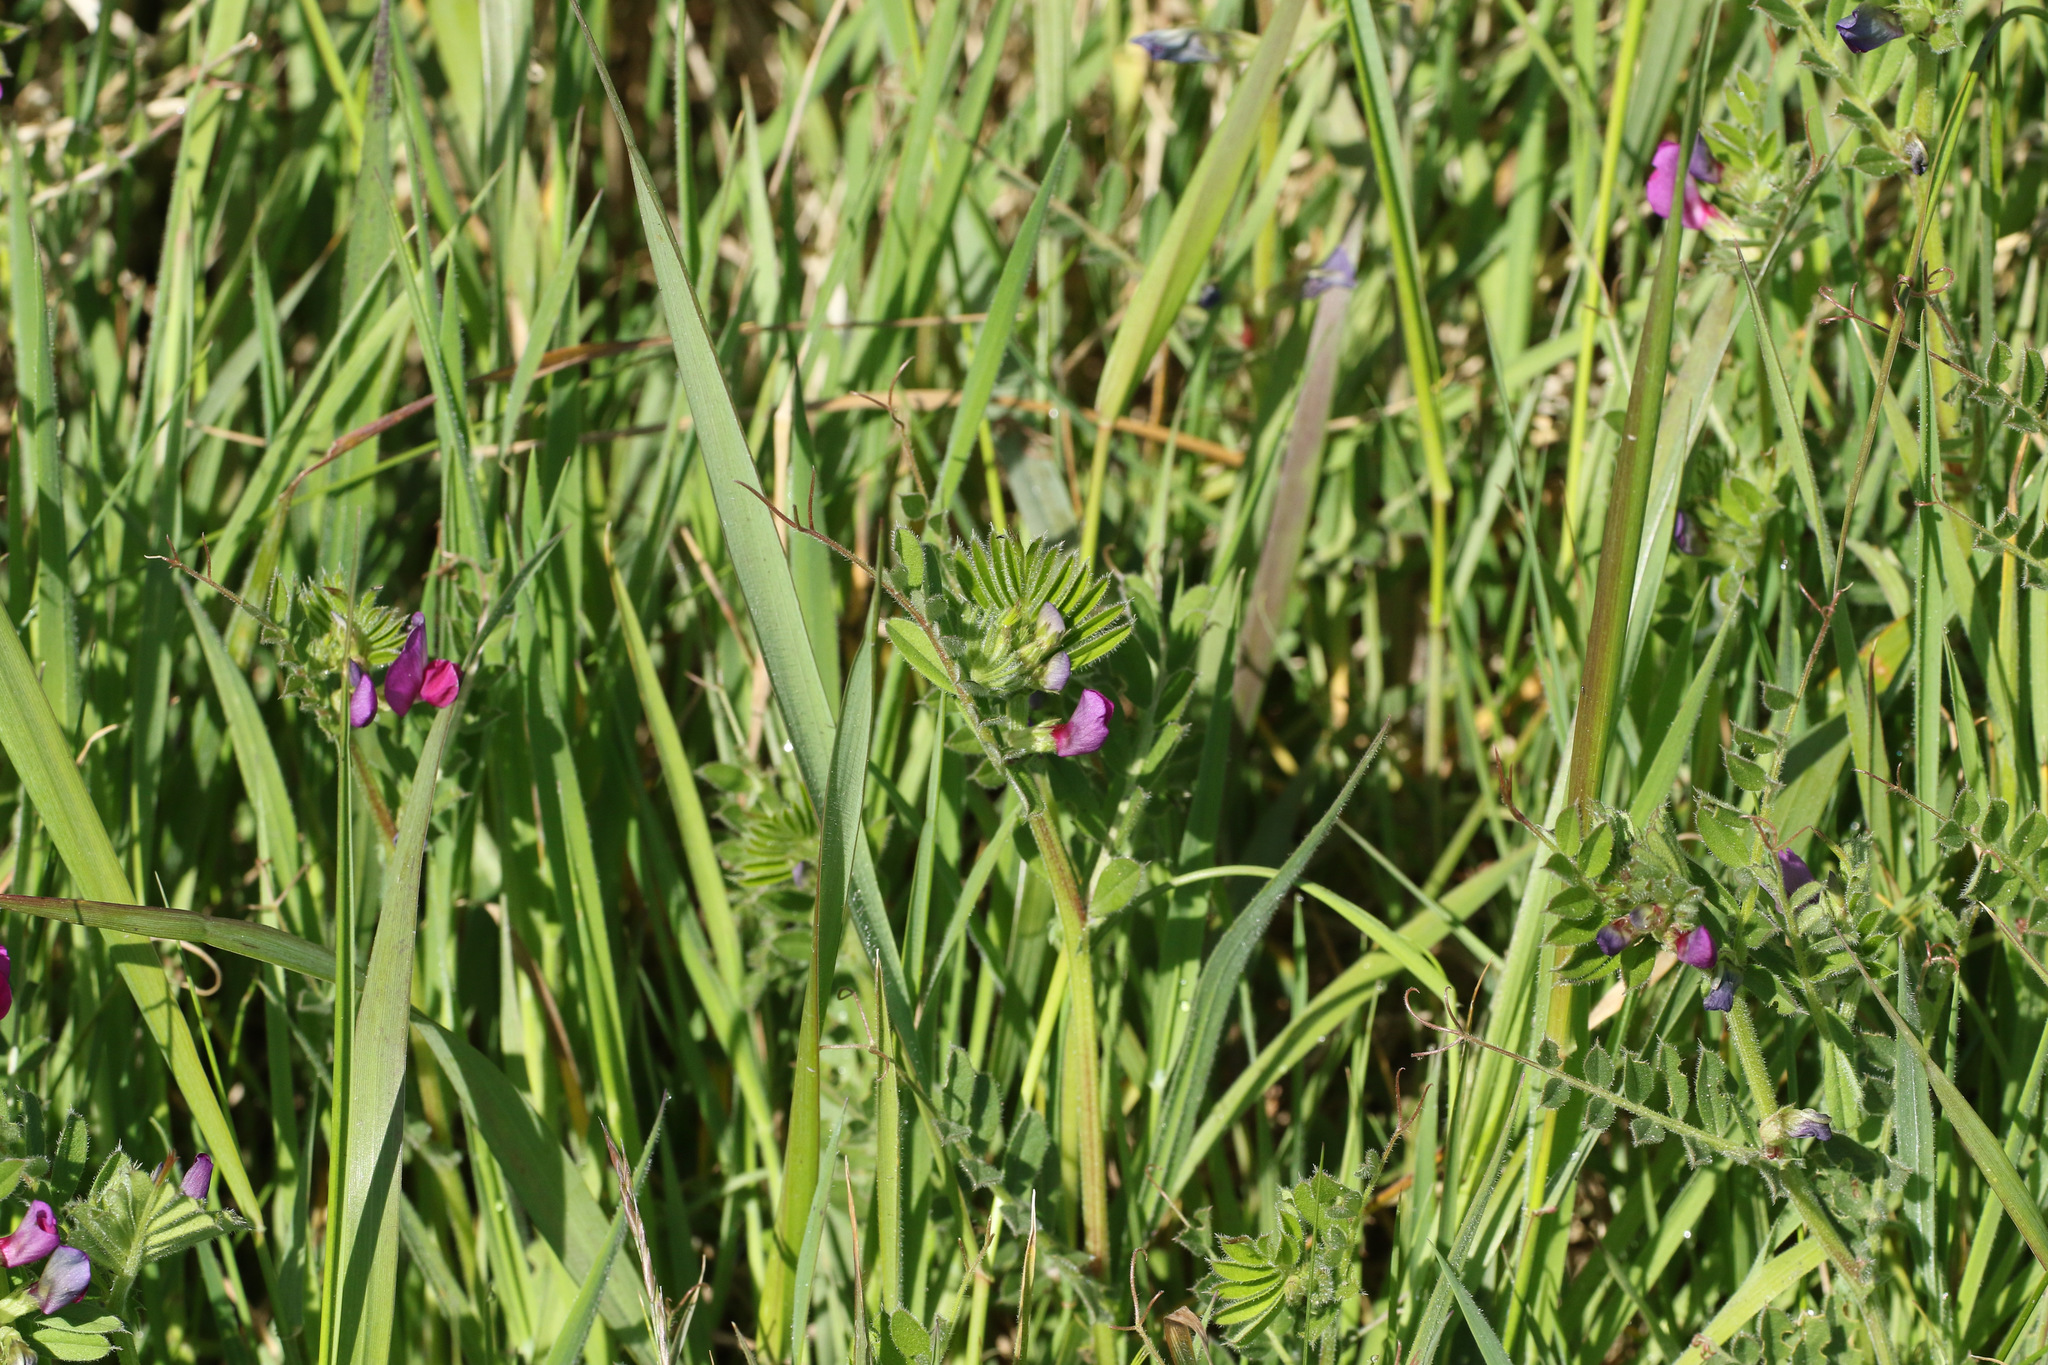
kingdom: Plantae
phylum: Tracheophyta
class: Magnoliopsida
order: Fabales
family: Fabaceae
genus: Vicia
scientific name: Vicia sativa
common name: Garden vetch
